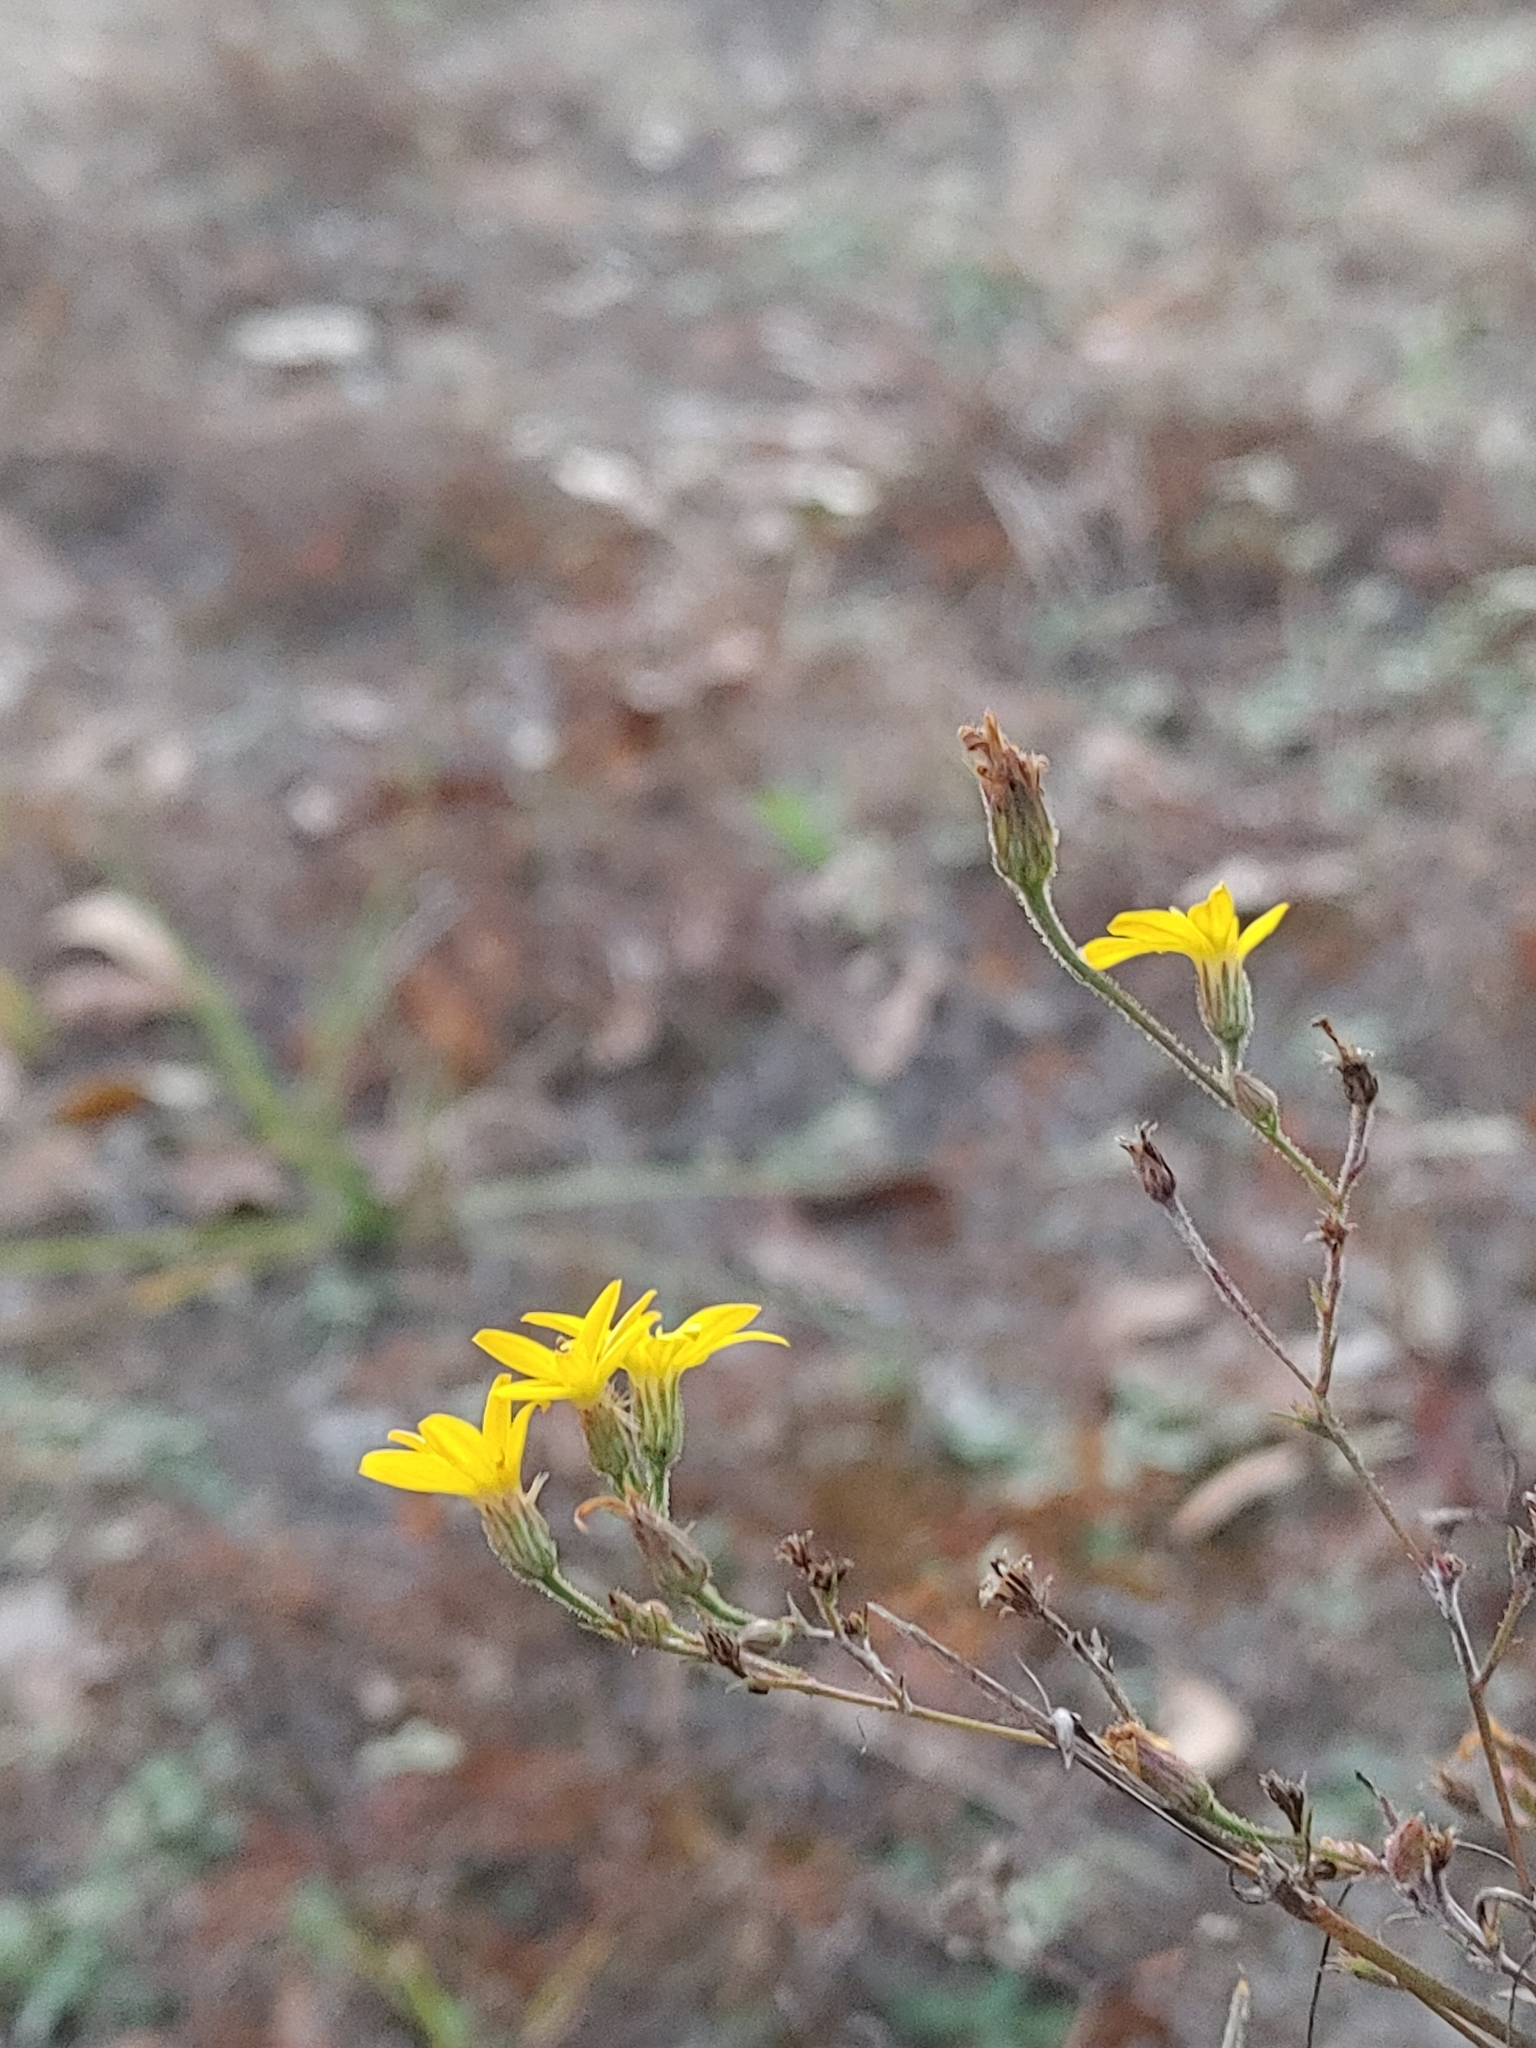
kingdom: Plantae
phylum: Tracheophyta
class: Magnoliopsida
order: Asterales
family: Asteraceae
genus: Croptilon
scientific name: Croptilon divaricatum
